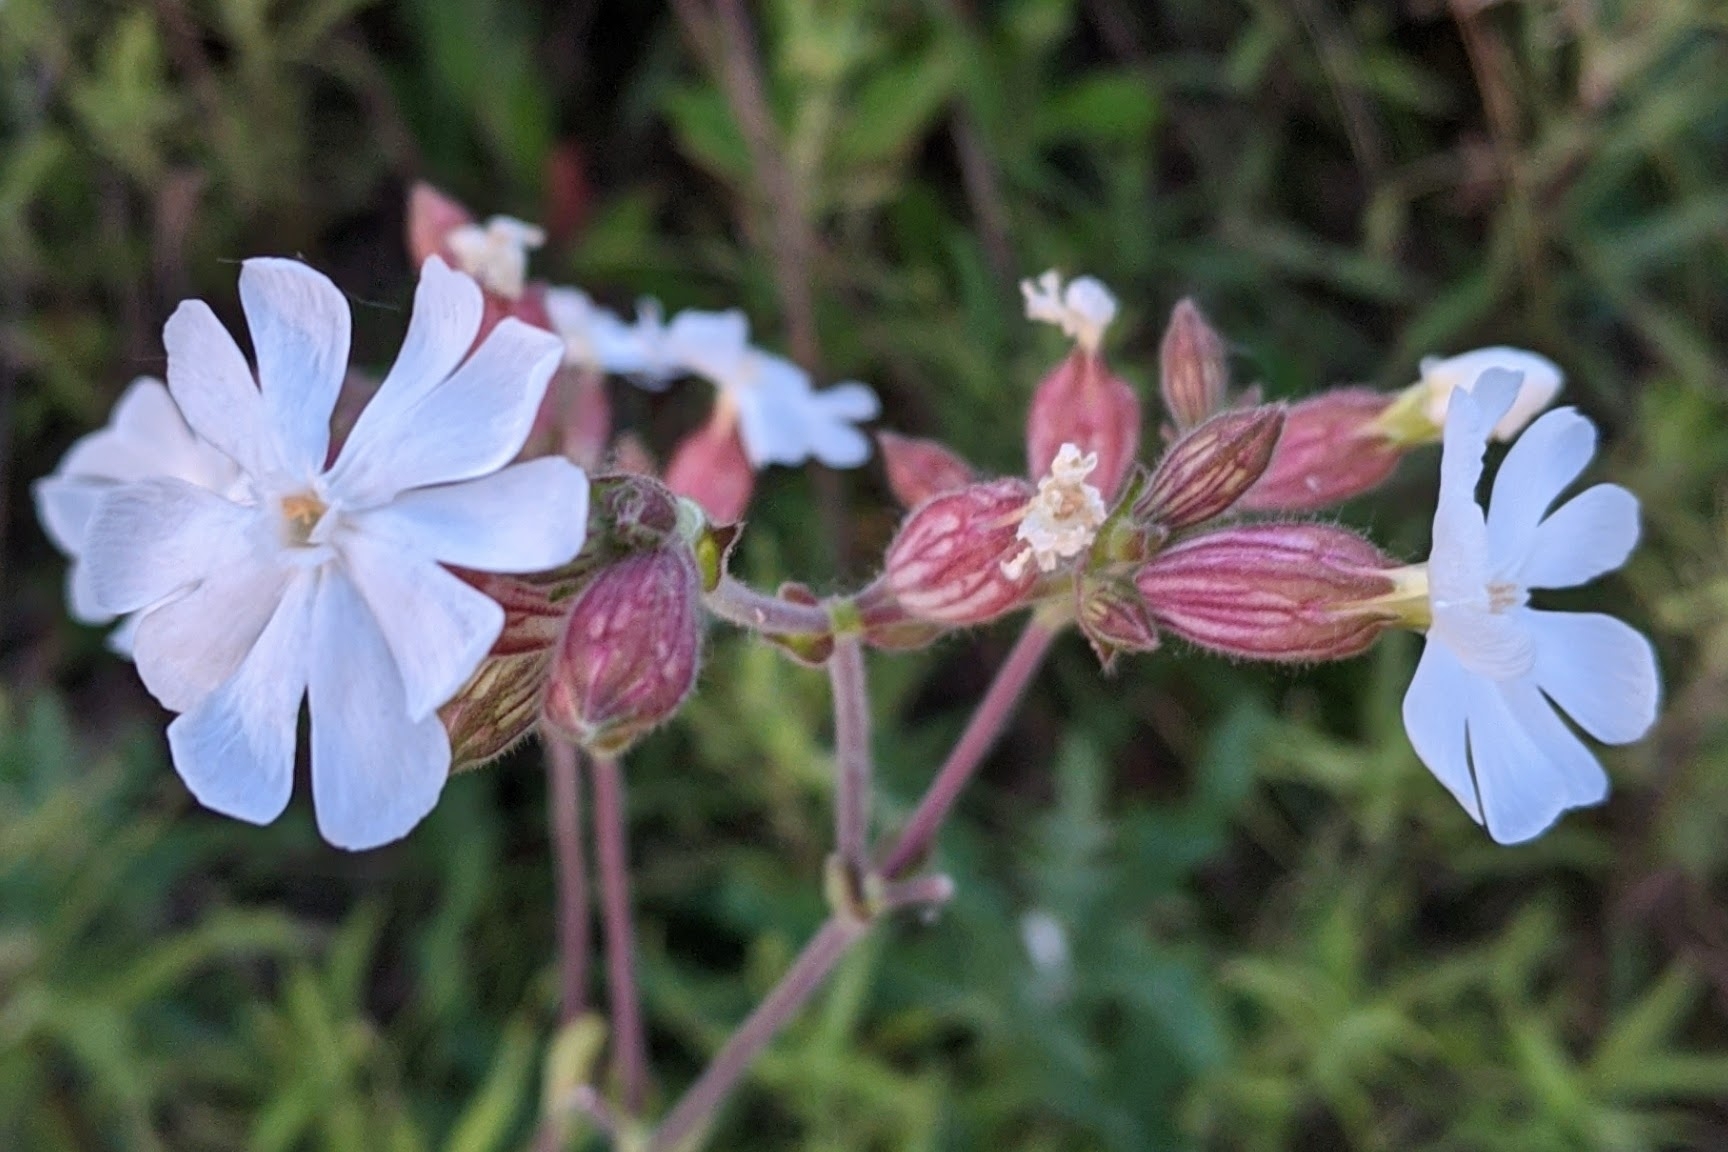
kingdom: Plantae
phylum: Tracheophyta
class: Magnoliopsida
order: Caryophyllales
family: Caryophyllaceae
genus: Silene
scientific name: Silene latifolia
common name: White campion
